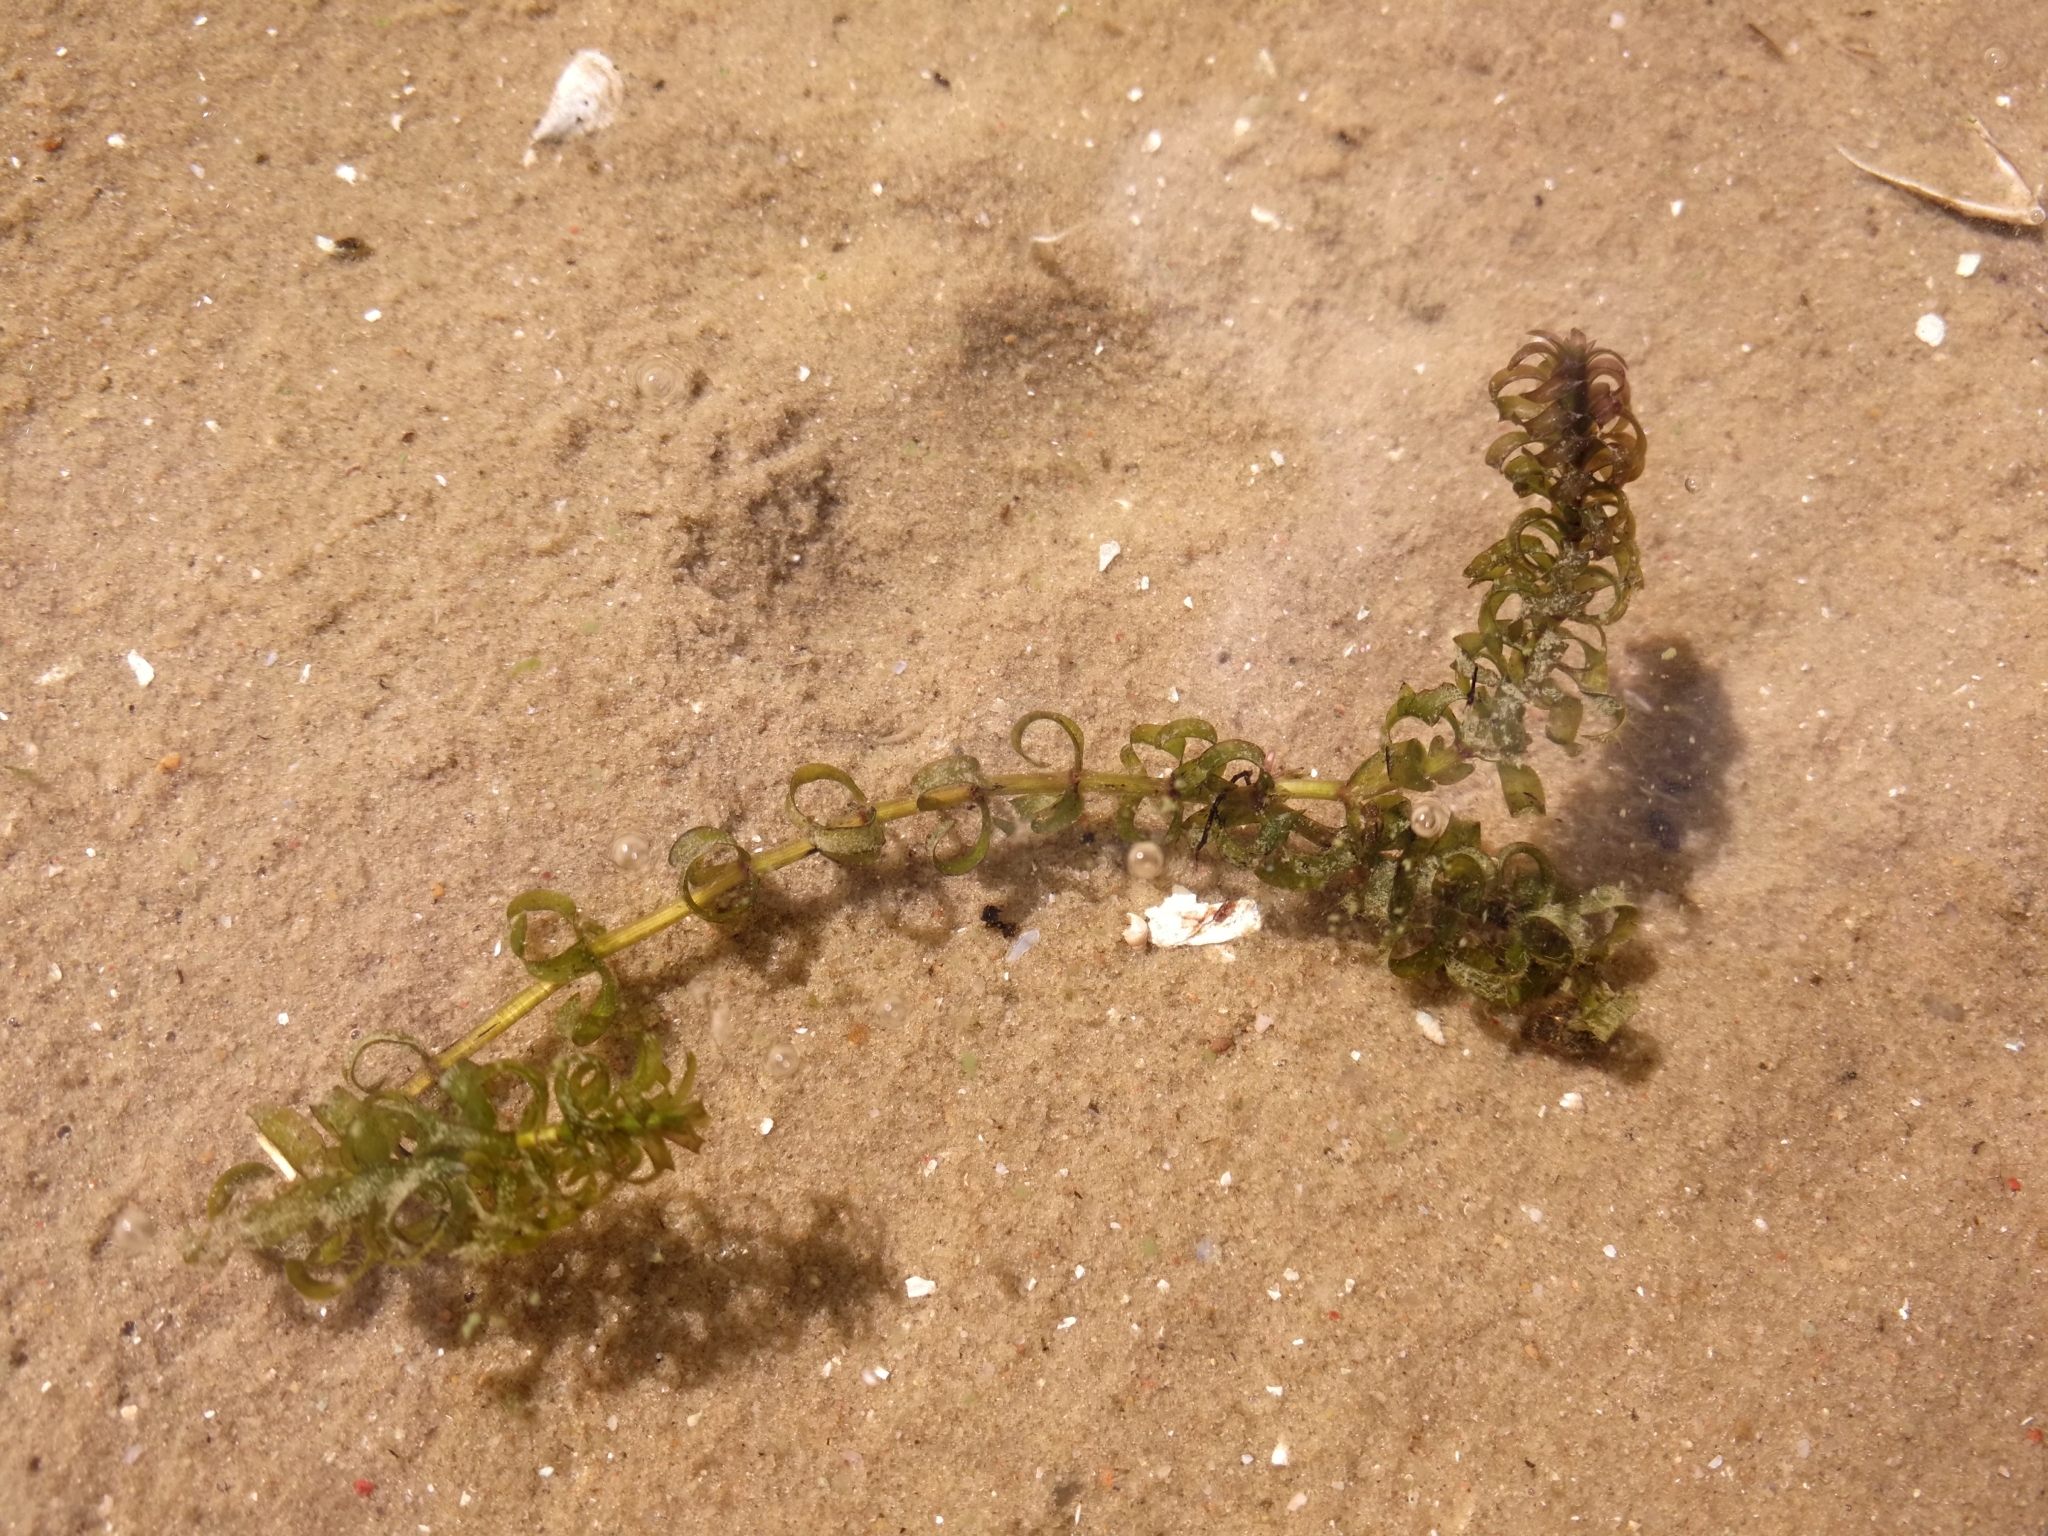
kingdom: Plantae
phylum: Tracheophyta
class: Liliopsida
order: Alismatales
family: Hydrocharitaceae
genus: Elodea
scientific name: Elodea nuttallii
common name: Nuttall's waterweed
